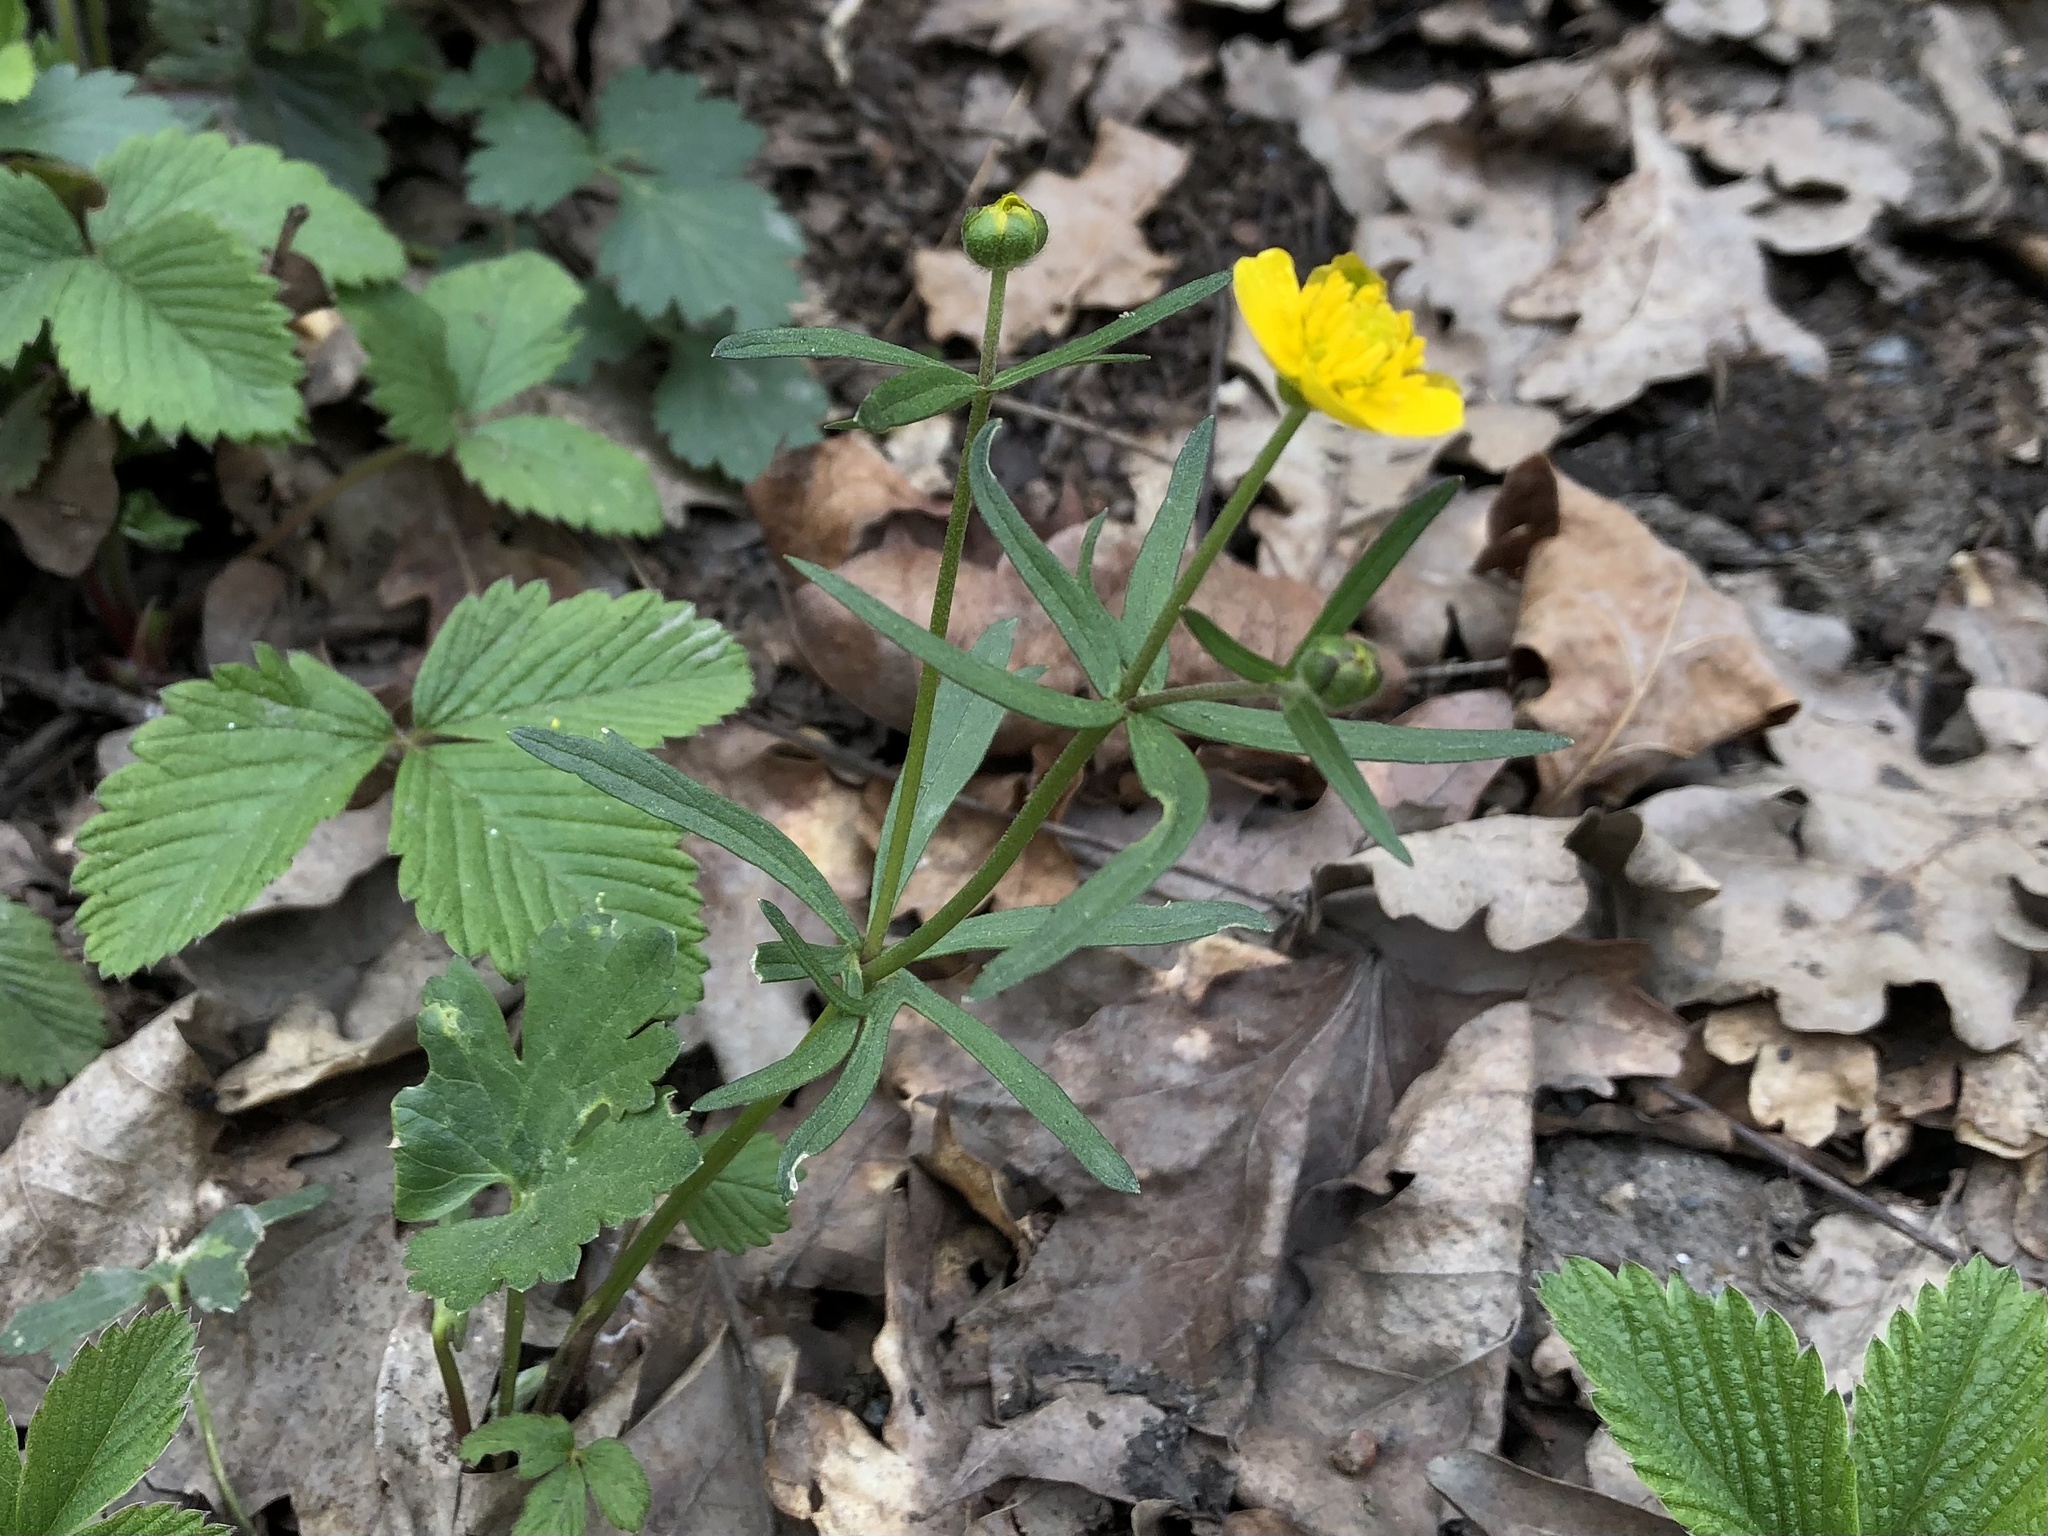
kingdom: Plantae
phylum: Tracheophyta
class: Magnoliopsida
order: Ranunculales
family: Ranunculaceae
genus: Ranunculus
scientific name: Ranunculus auricomus
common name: Goldilocks buttercup
